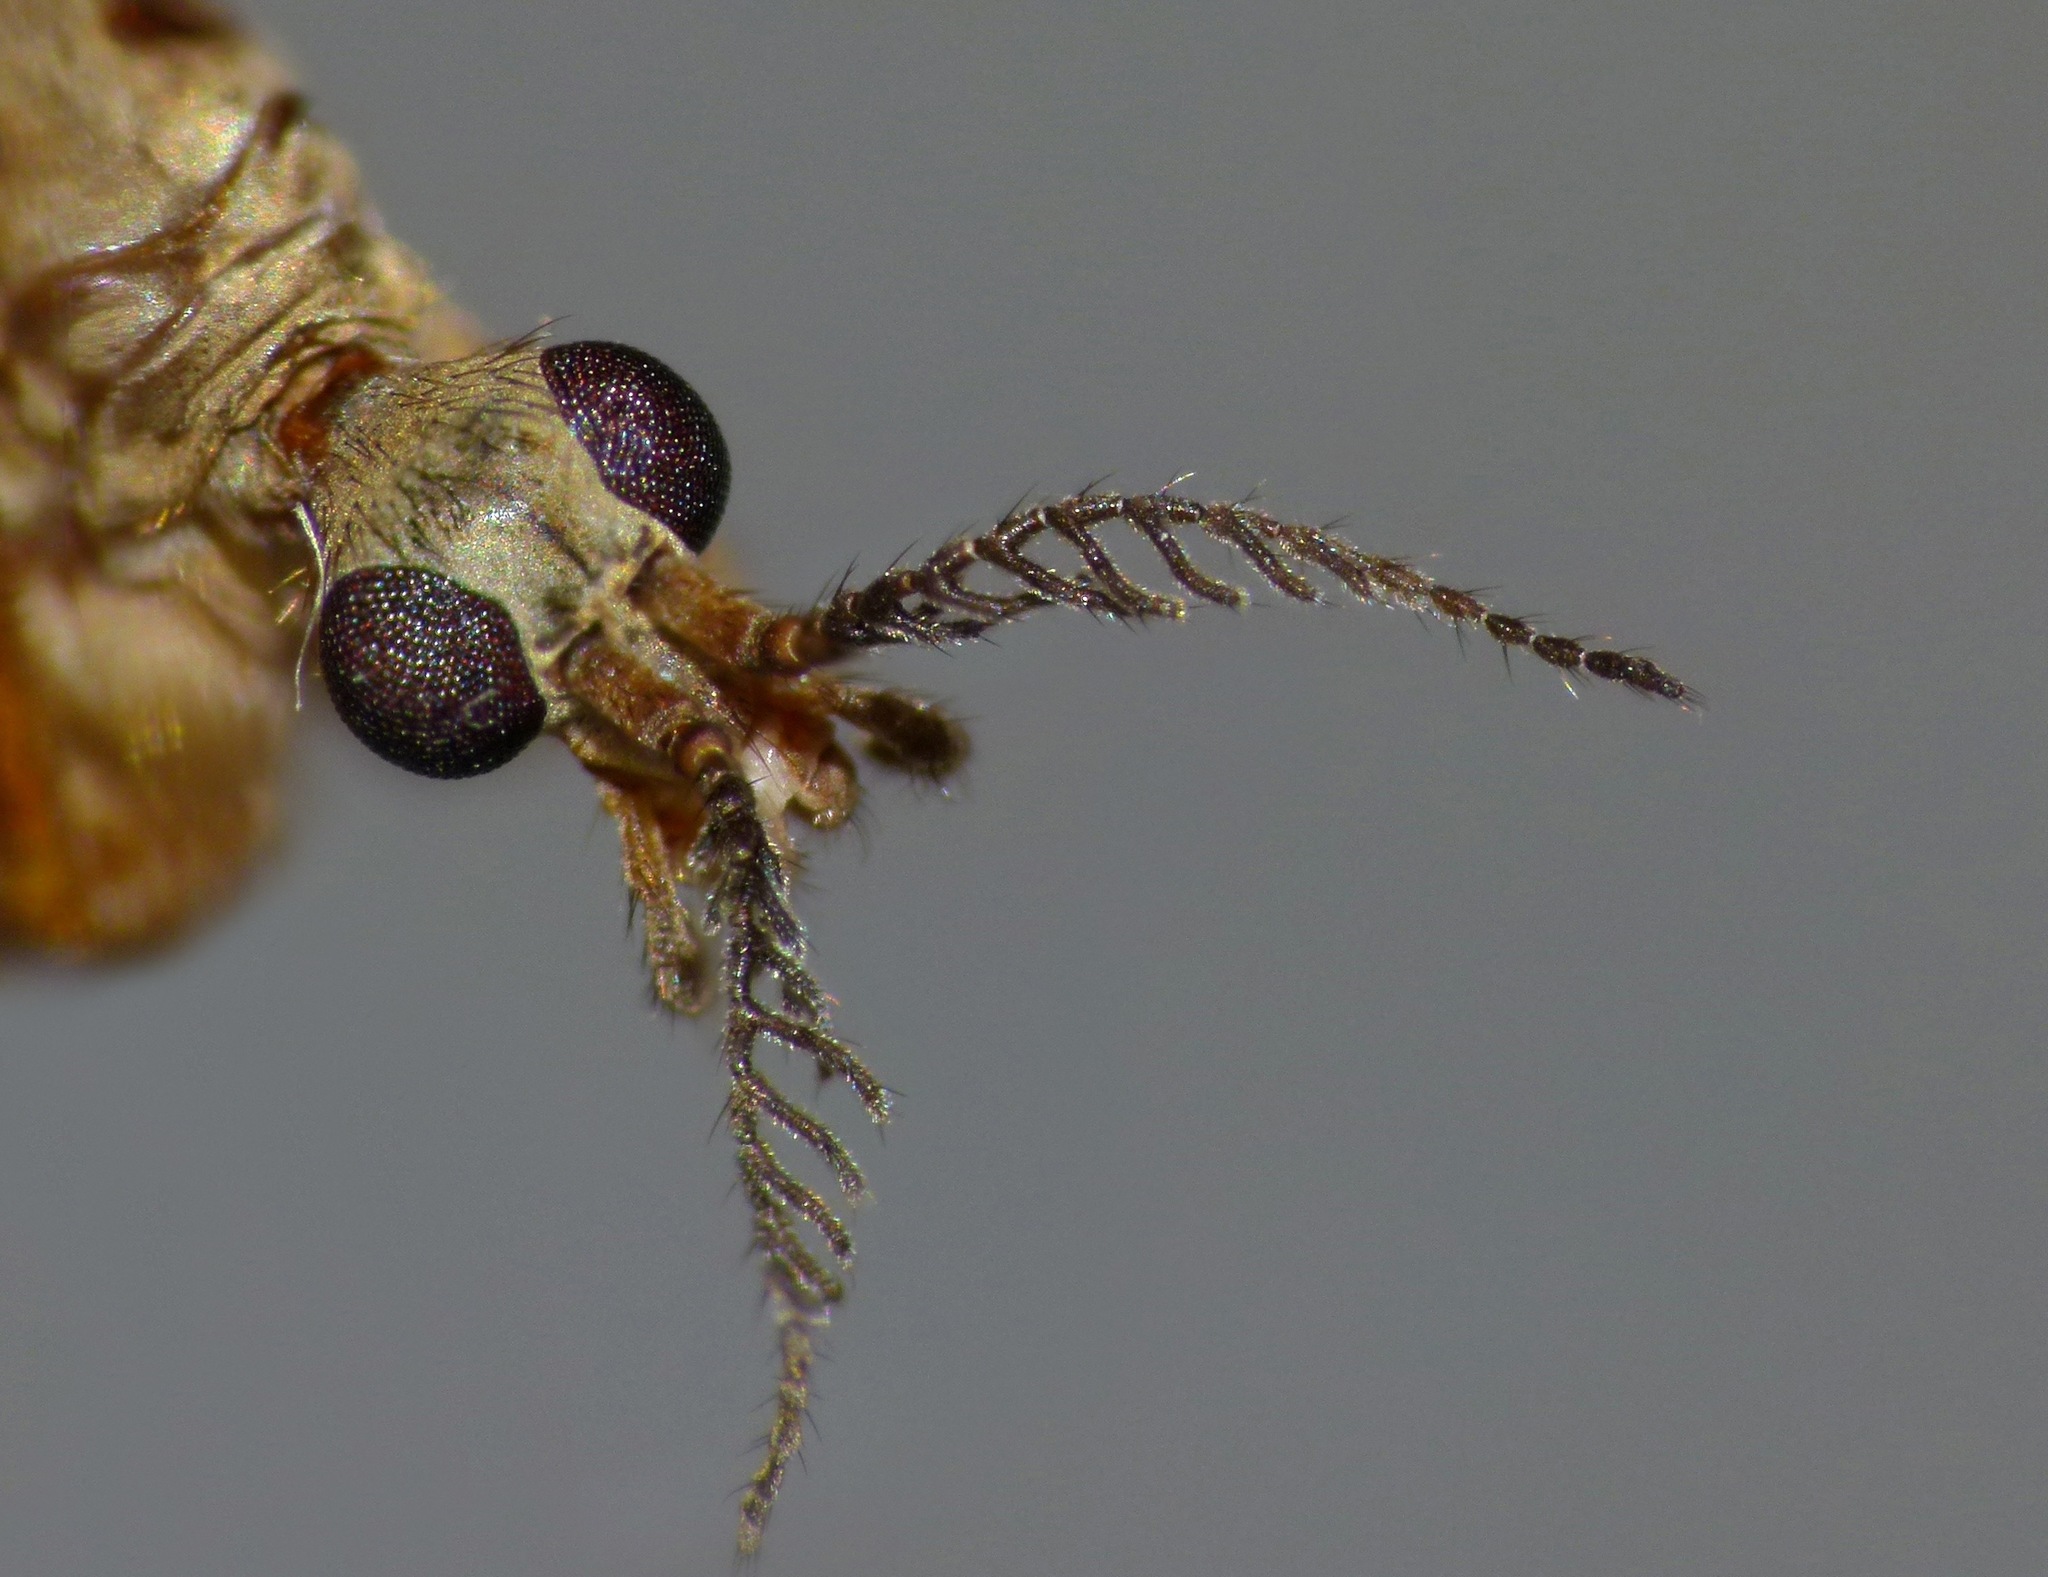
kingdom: Animalia
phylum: Arthropoda
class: Insecta
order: Diptera
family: Limoniidae
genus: Gynoplistia
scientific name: Gynoplistia chathamica
